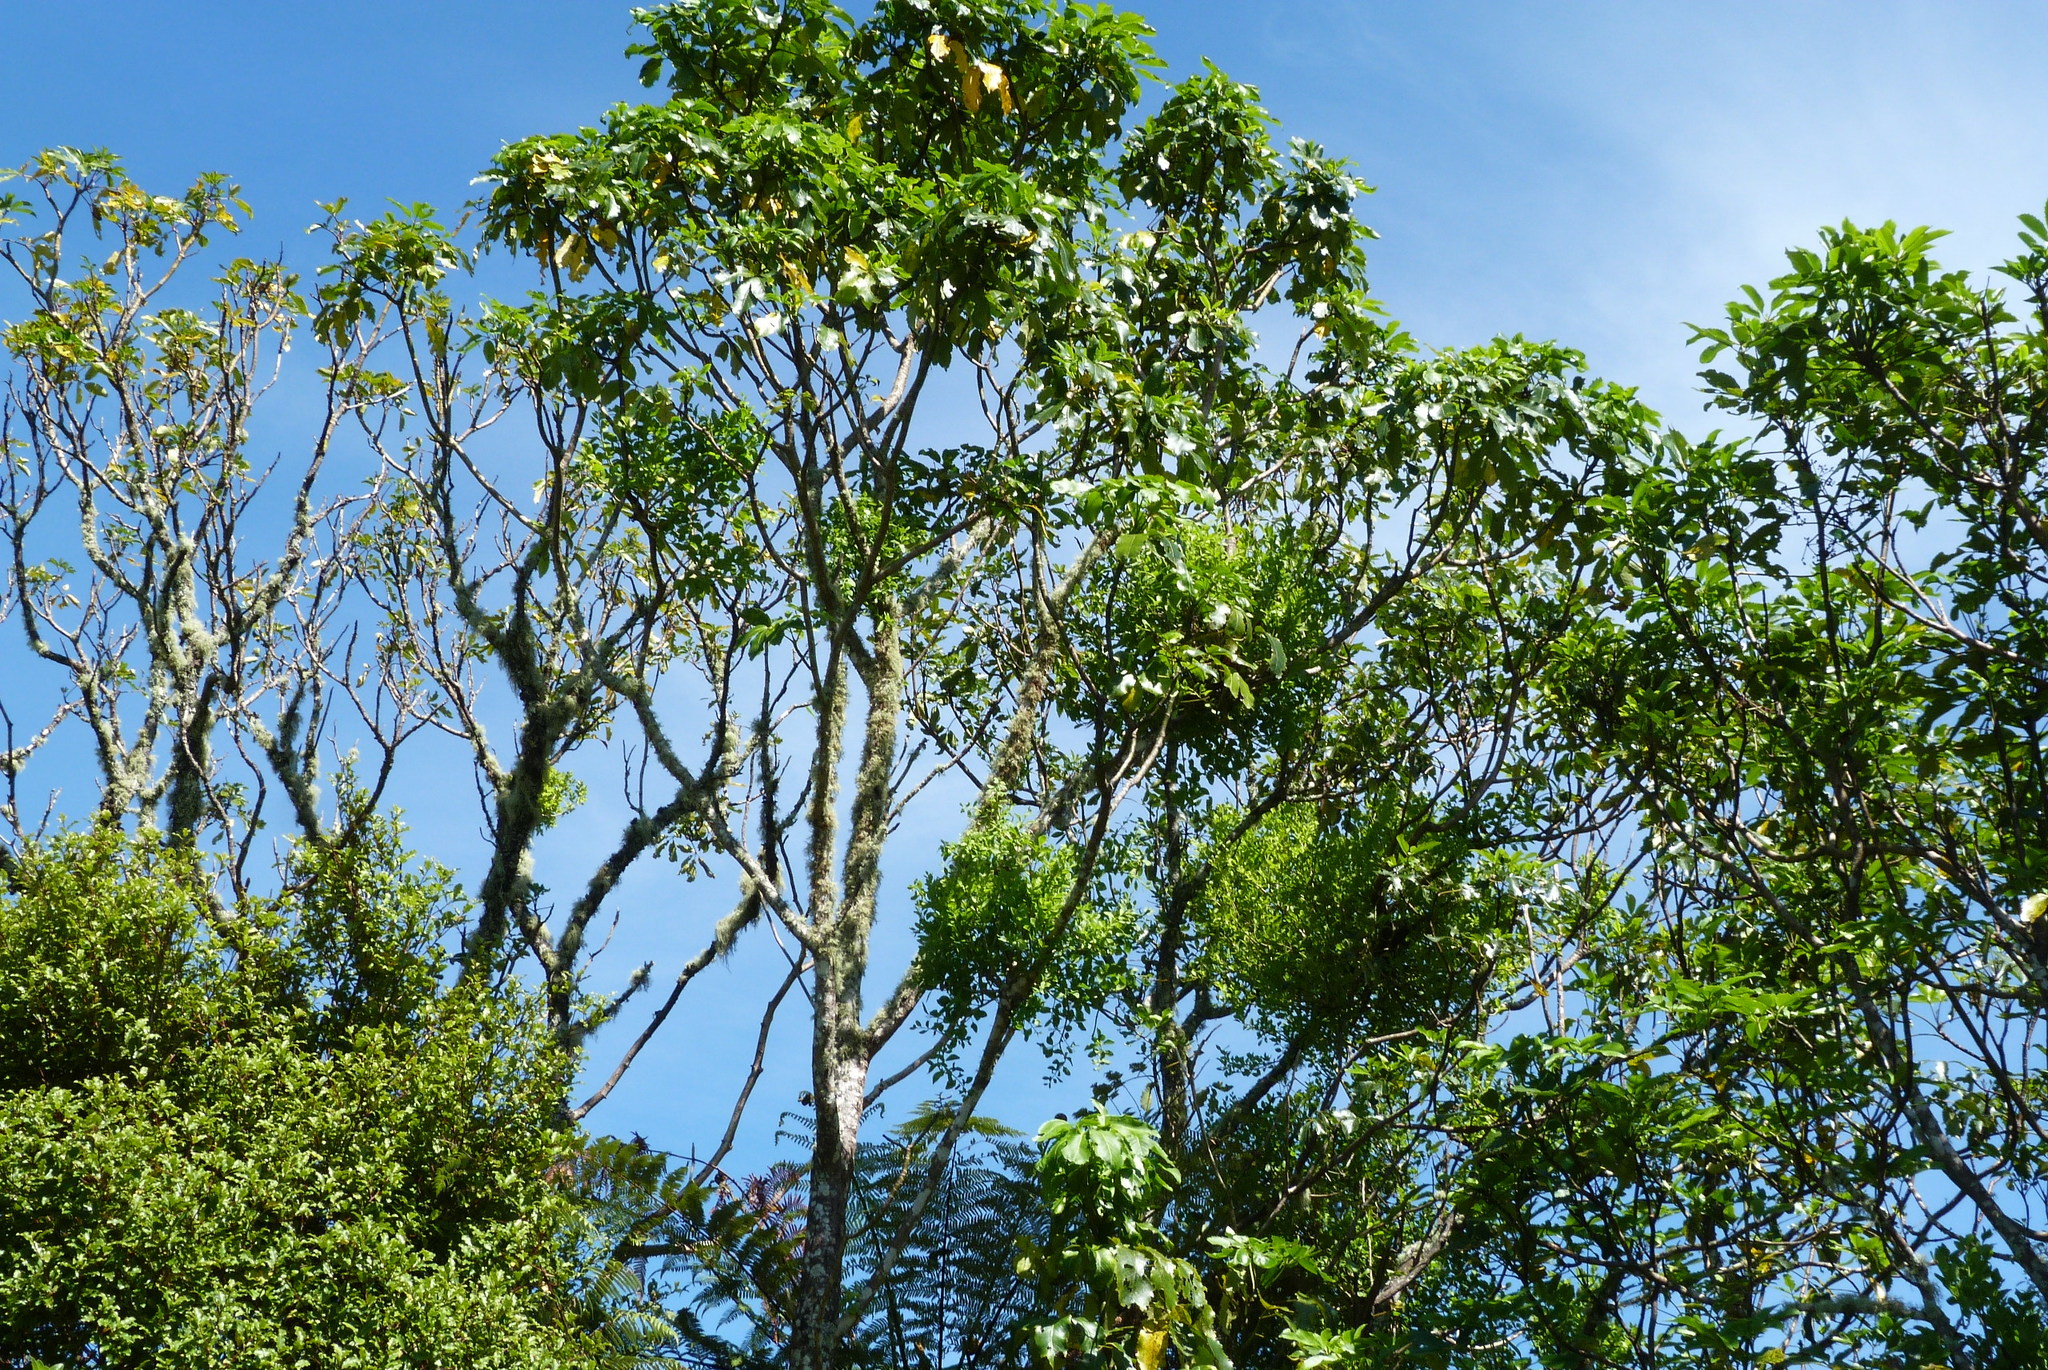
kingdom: Plantae
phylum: Tracheophyta
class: Magnoliopsida
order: Santalales
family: Loranthaceae
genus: Tupeia
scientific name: Tupeia antarctica
